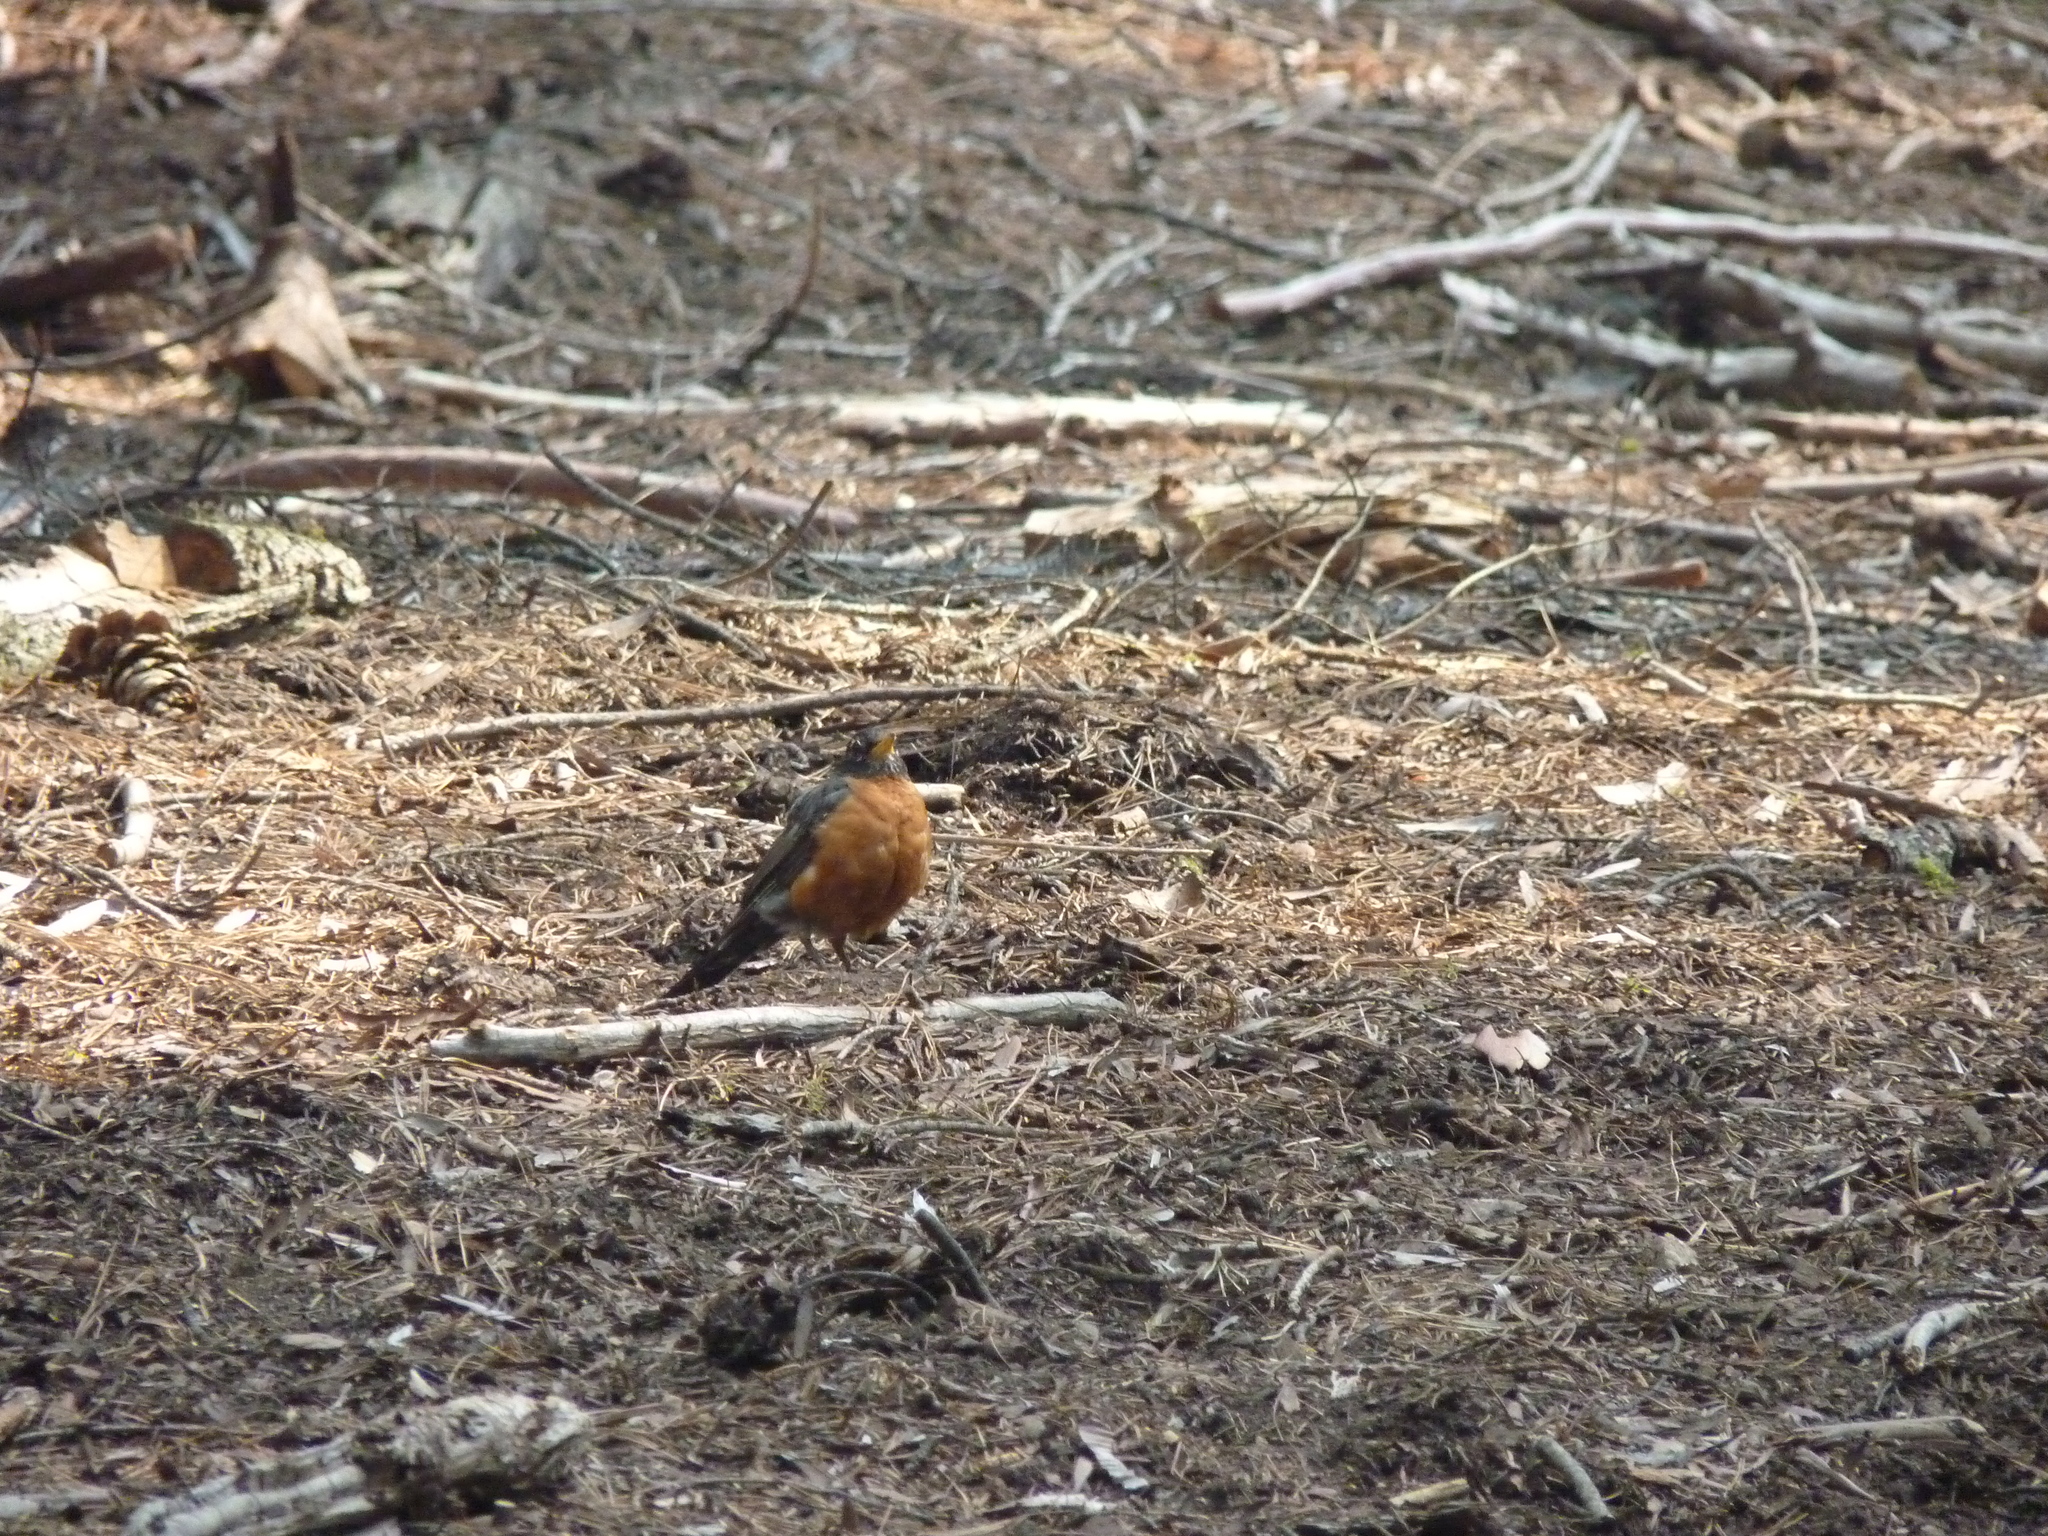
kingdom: Animalia
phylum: Chordata
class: Aves
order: Passeriformes
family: Turdidae
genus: Turdus
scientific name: Turdus migratorius
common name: American robin
